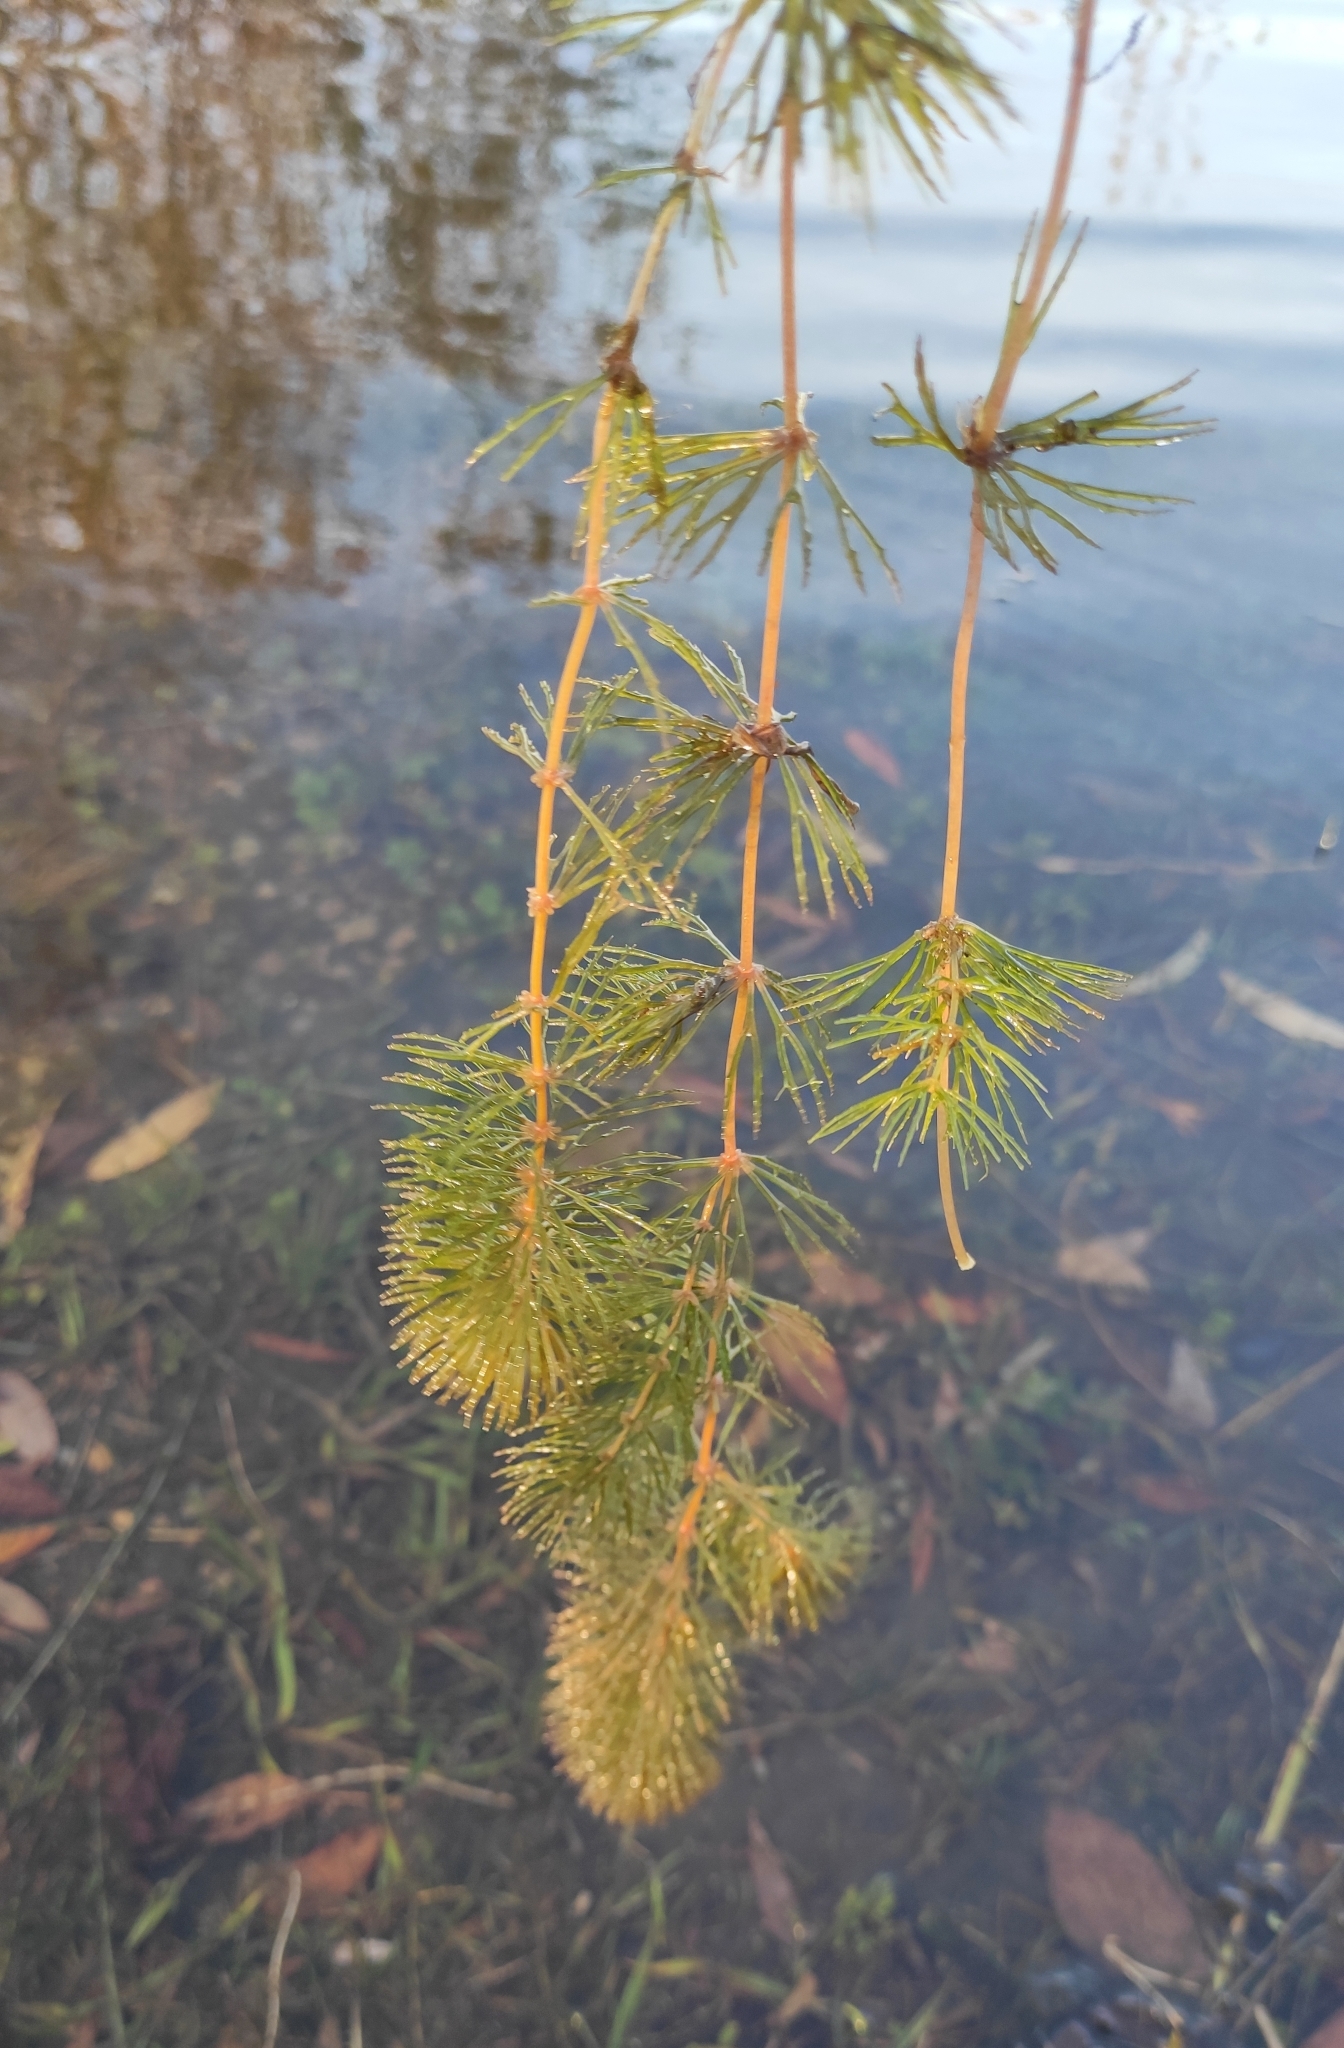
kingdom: Plantae
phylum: Tracheophyta
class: Magnoliopsida
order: Ceratophyllales
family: Ceratophyllaceae
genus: Ceratophyllum
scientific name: Ceratophyllum demersum
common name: Rigid hornwort
